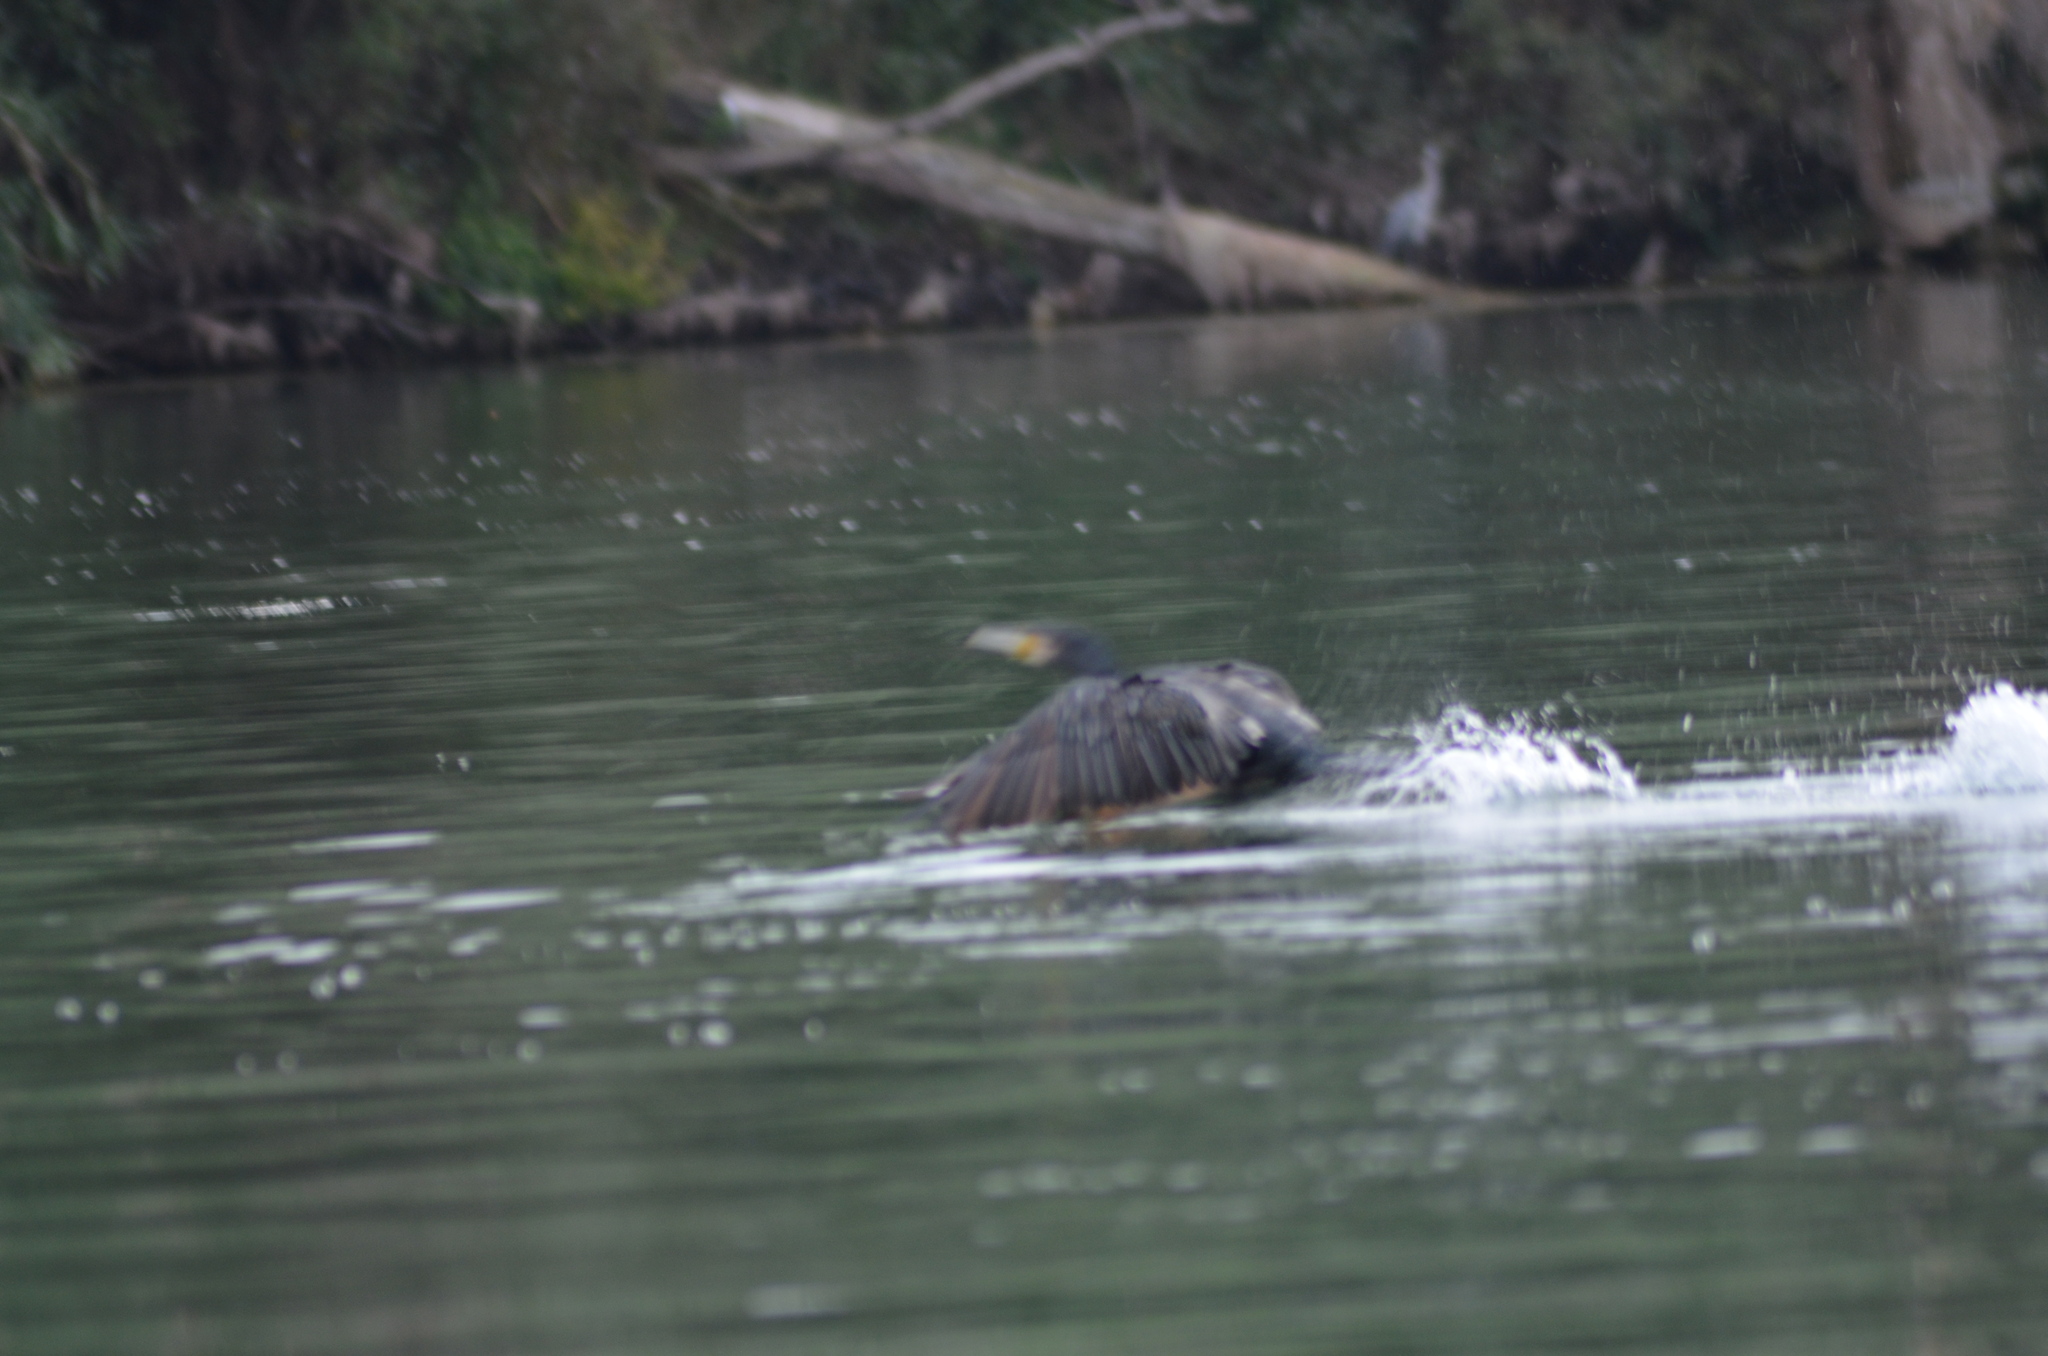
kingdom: Animalia
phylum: Chordata
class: Aves
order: Suliformes
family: Phalacrocoracidae
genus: Phalacrocorax
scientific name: Phalacrocorax carbo
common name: Great cormorant
